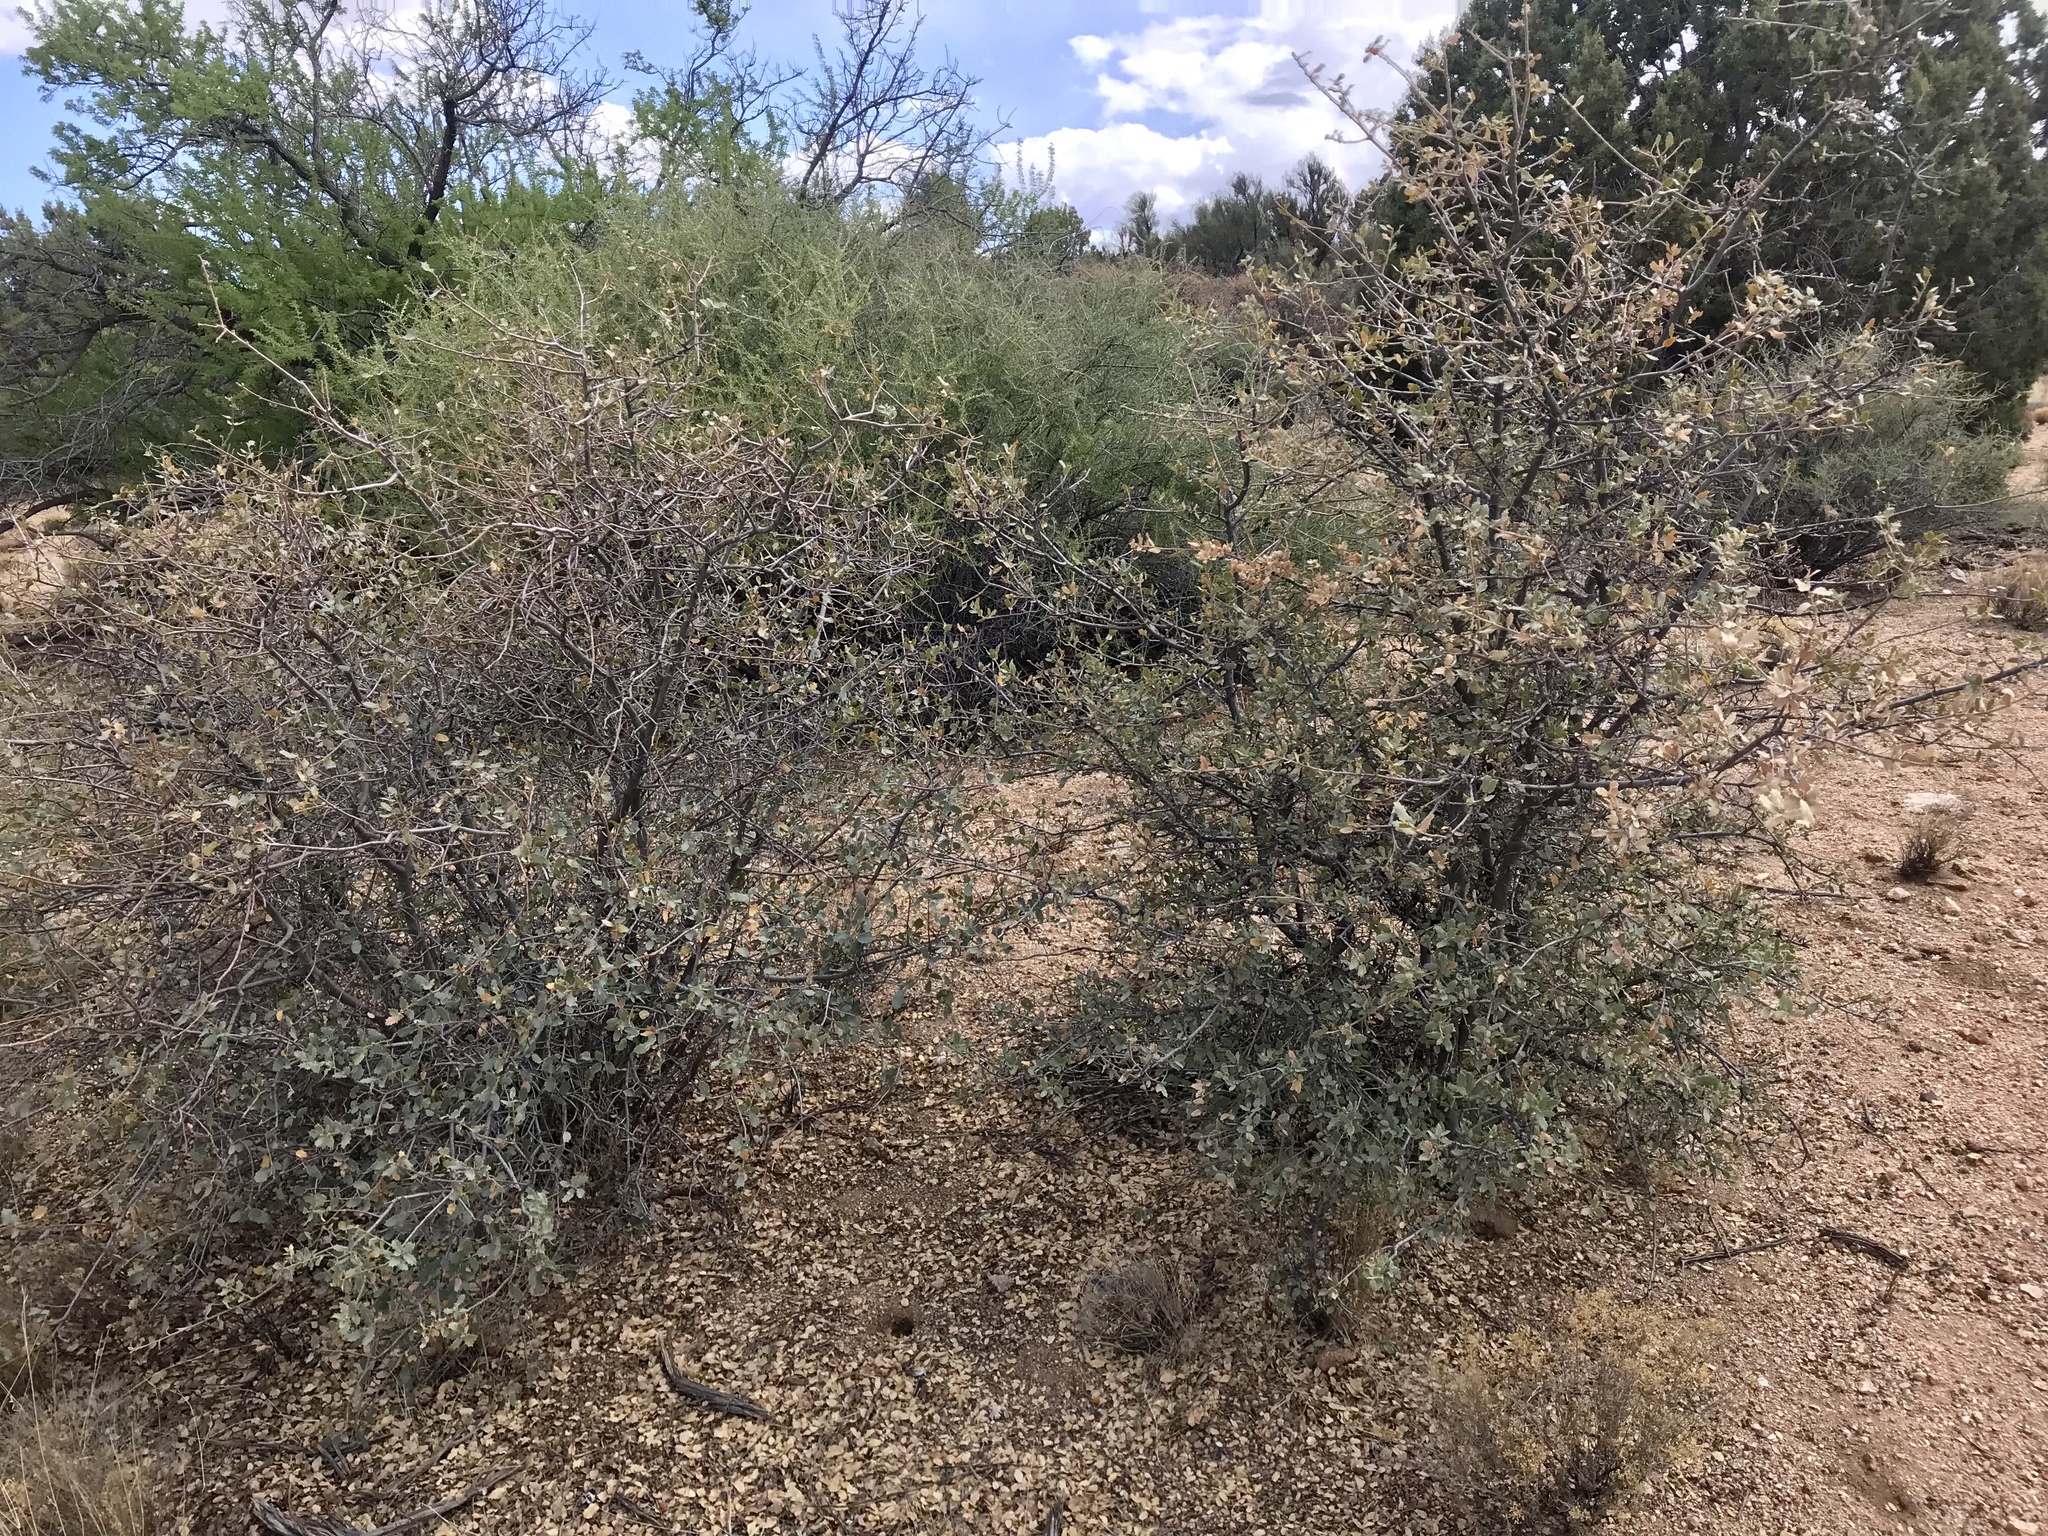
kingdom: Plantae
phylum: Tracheophyta
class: Magnoliopsida
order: Fagales
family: Fagaceae
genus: Quercus
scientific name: Quercus turbinella
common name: Sonoran scrub oak
